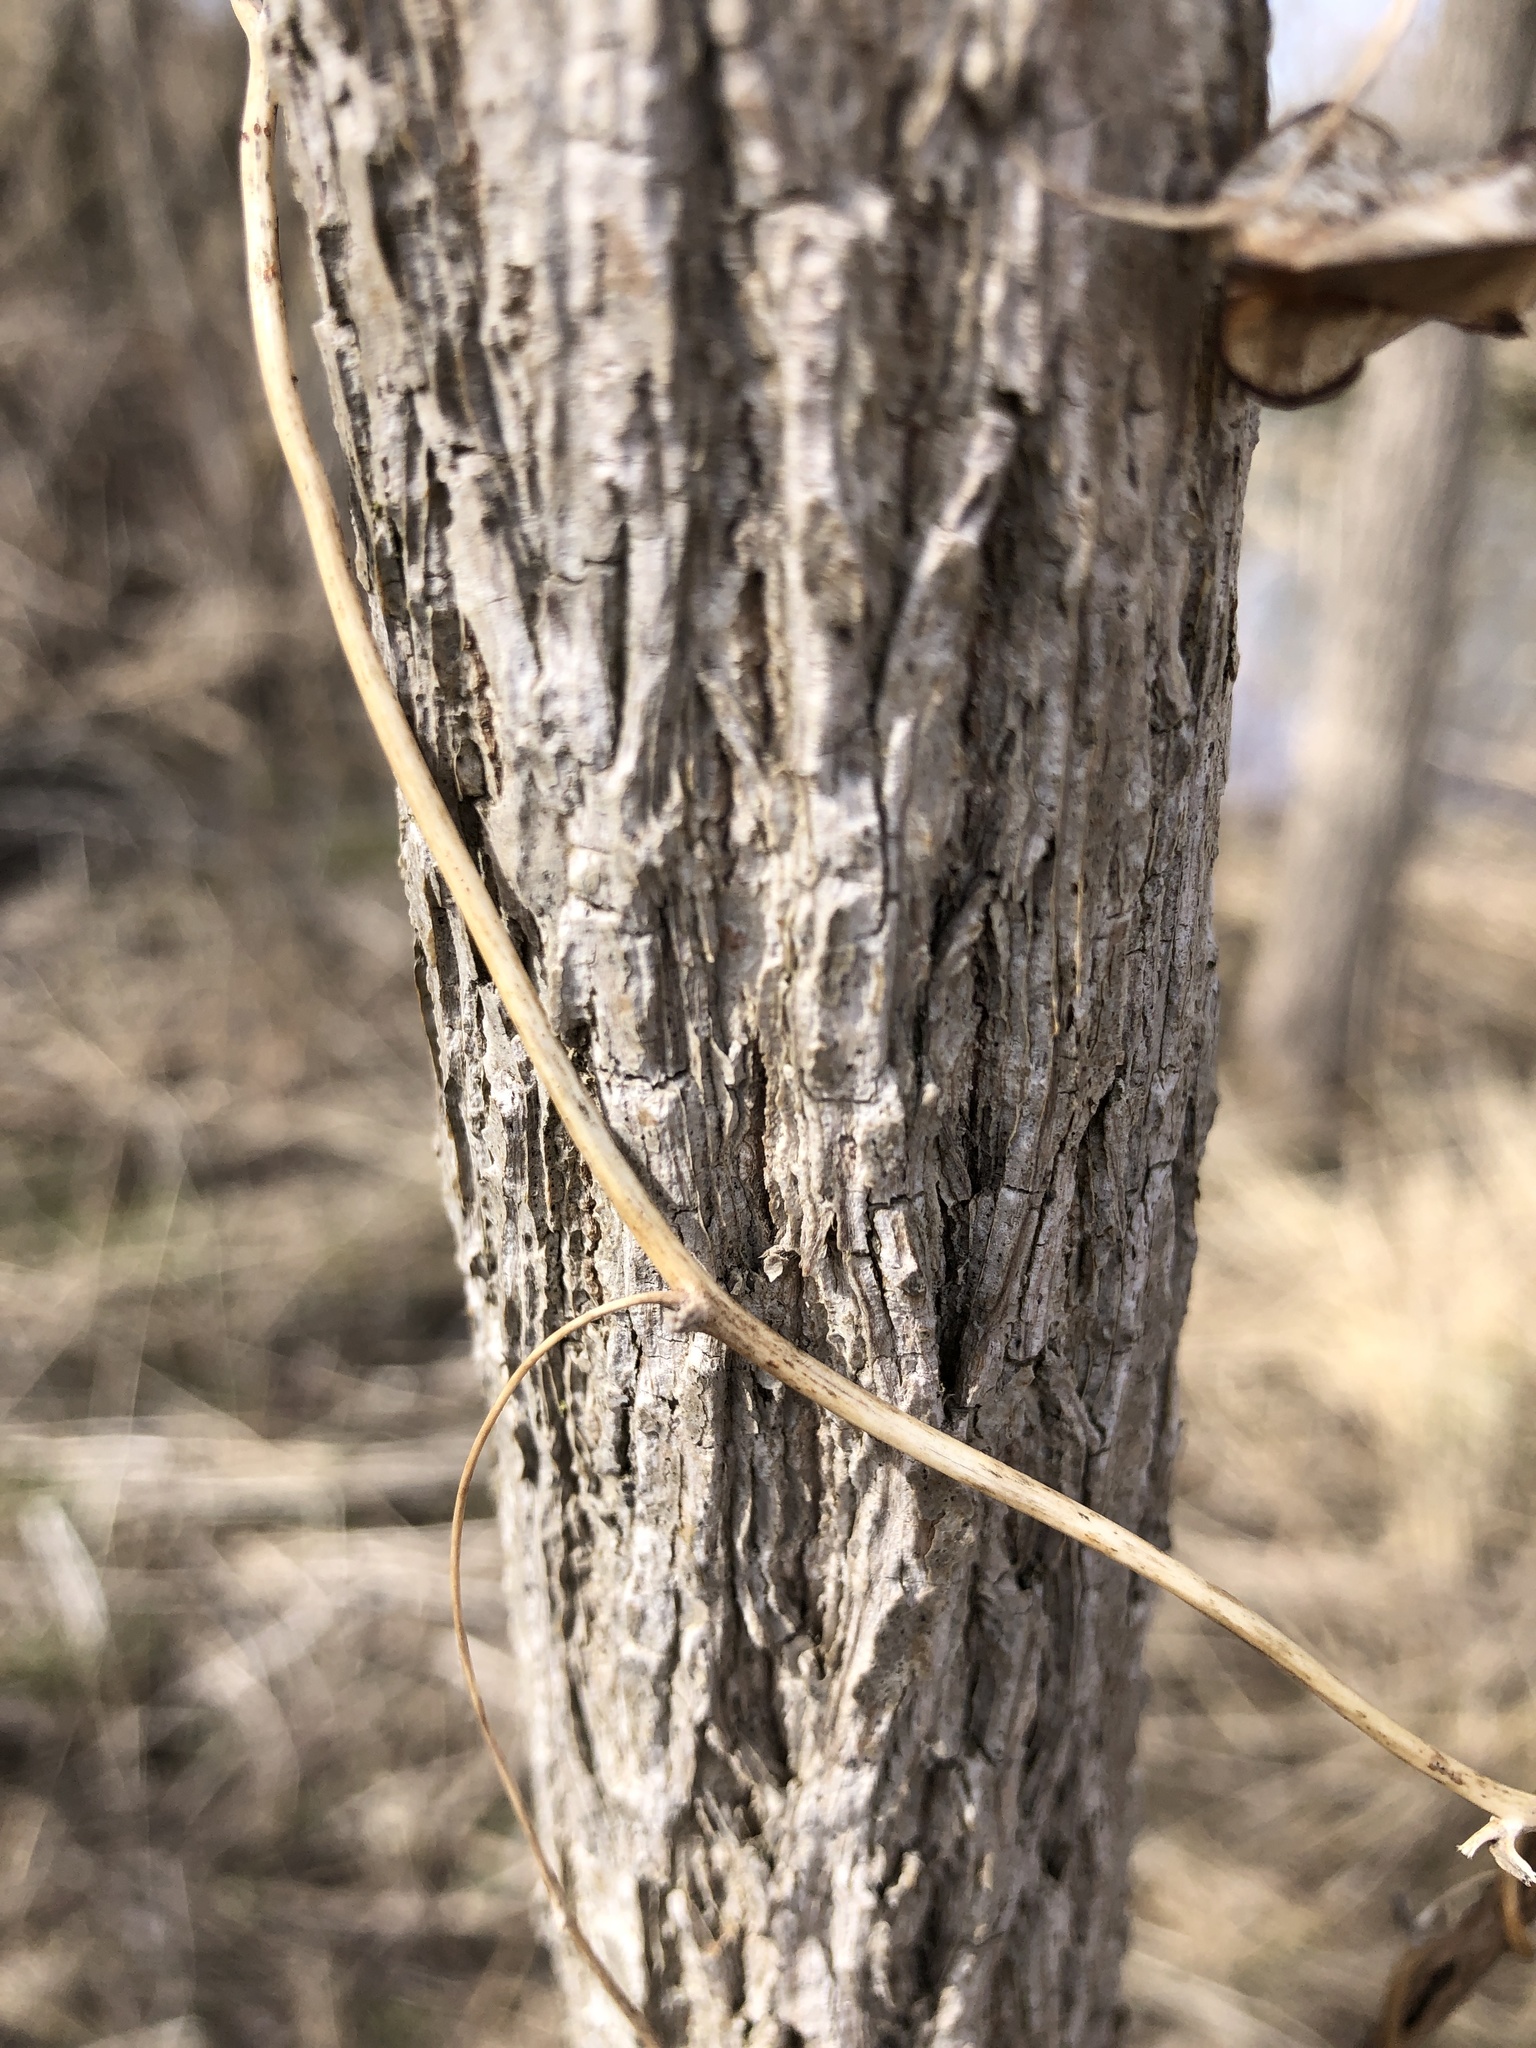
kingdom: Plantae
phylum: Tracheophyta
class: Liliopsida
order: Dioscoreales
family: Dioscoreaceae
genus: Dioscorea
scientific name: Dioscorea villosa
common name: Wild yam
